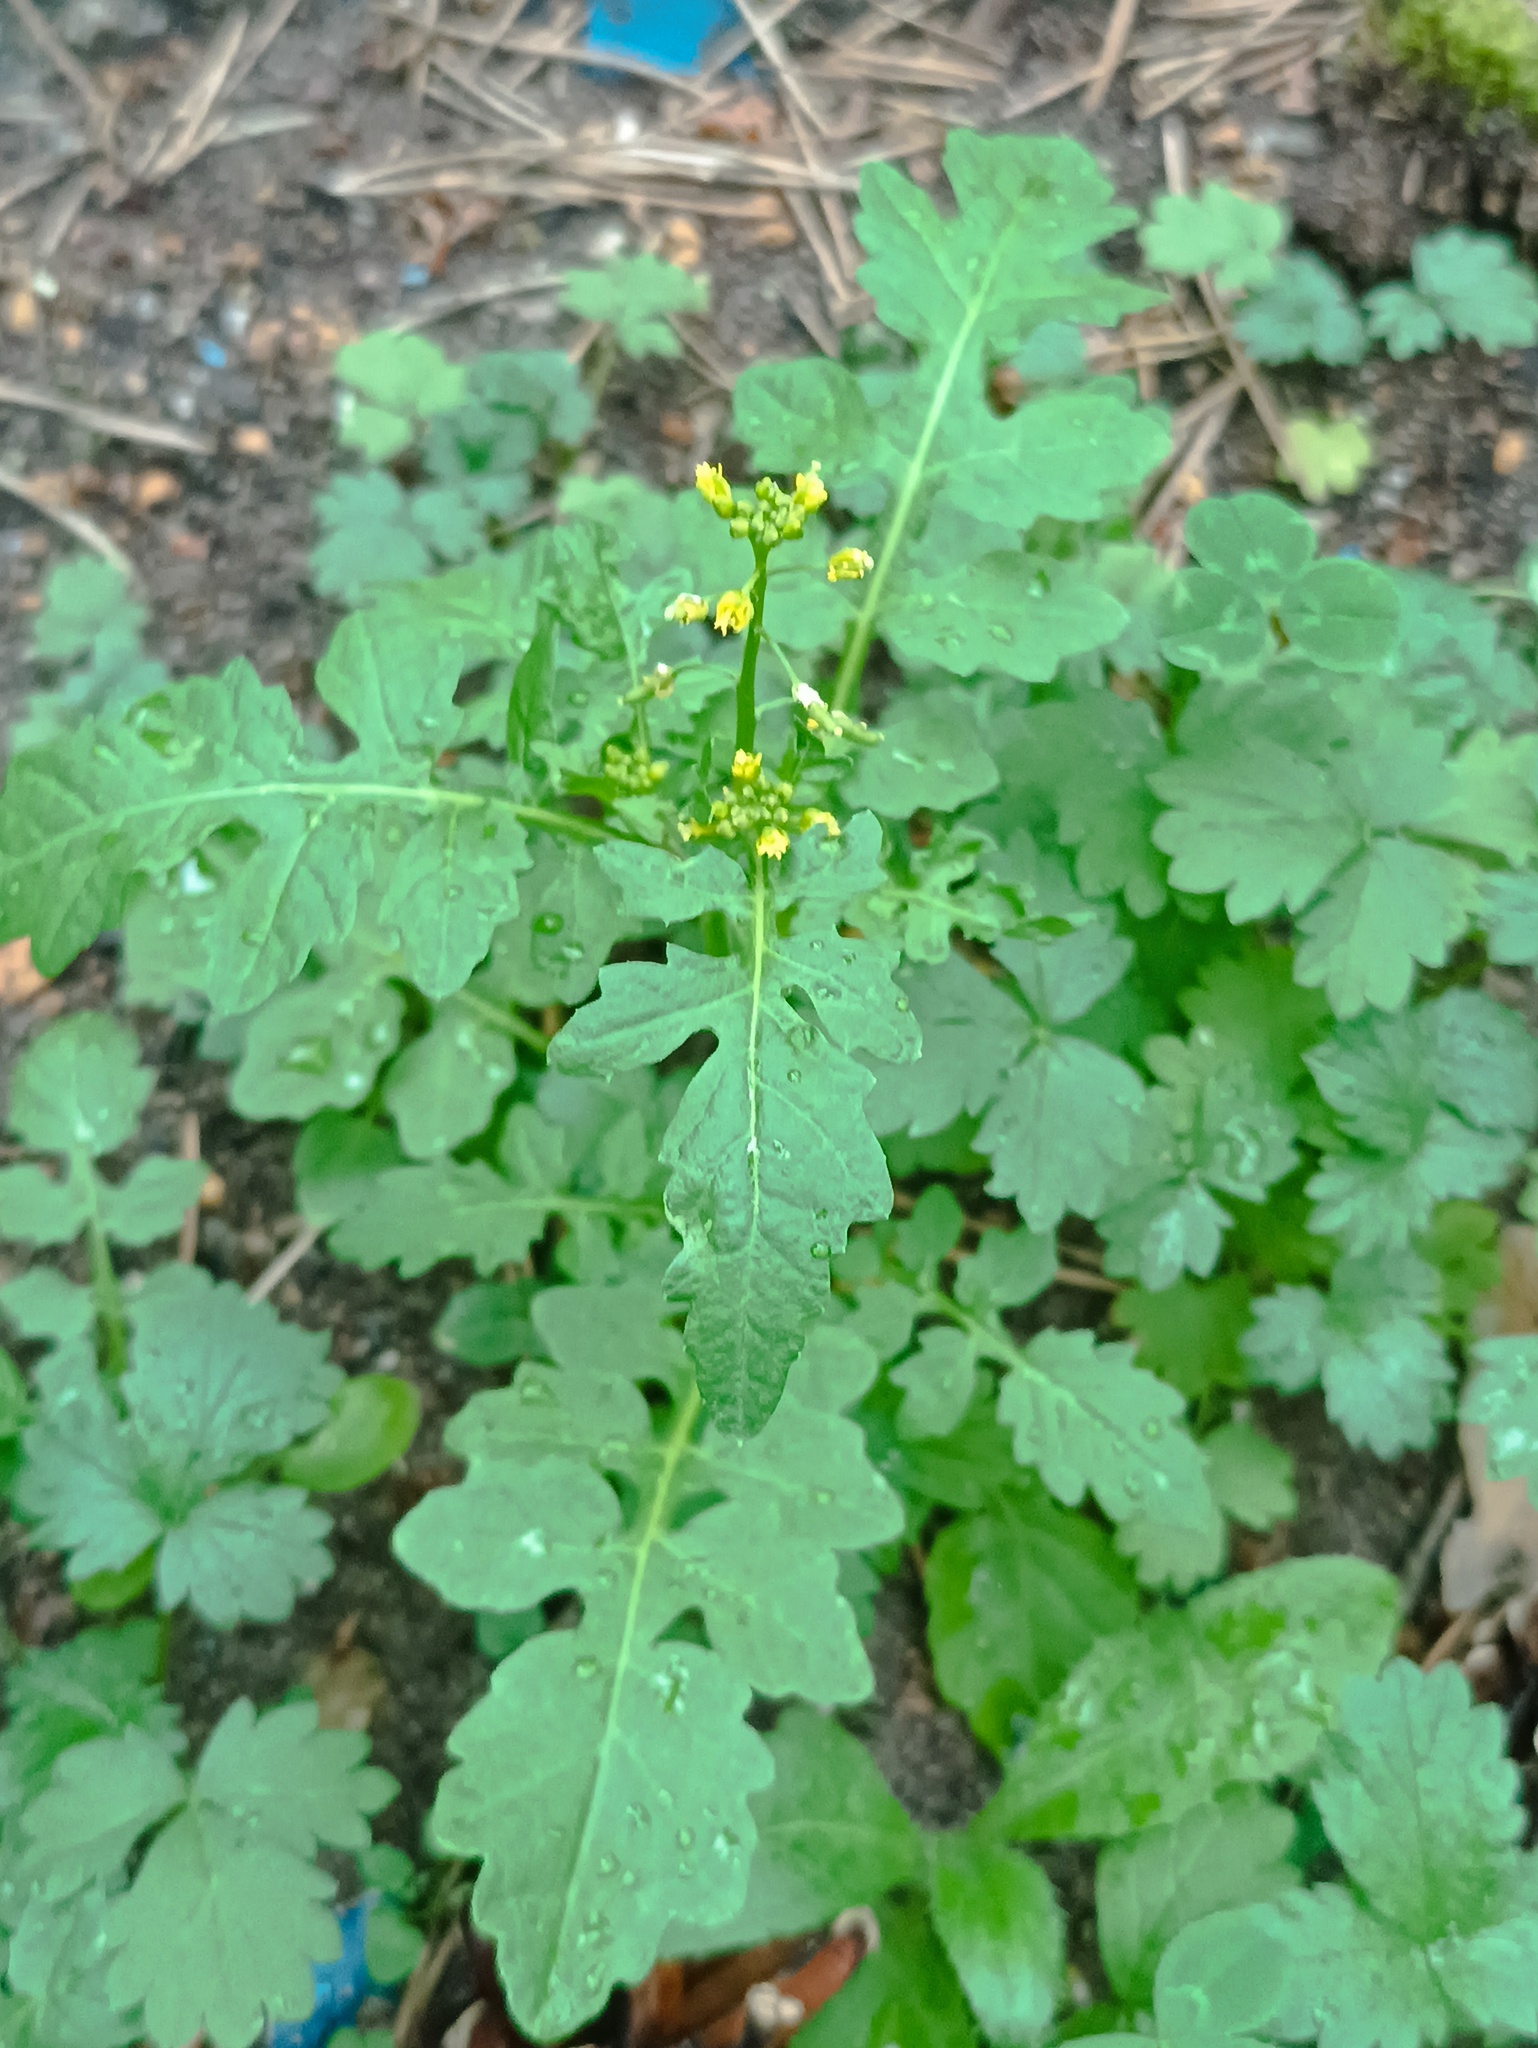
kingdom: Plantae
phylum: Tracheophyta
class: Magnoliopsida
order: Brassicales
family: Brassicaceae
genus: Rorippa
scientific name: Rorippa palustris
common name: Marsh yellow-cress
